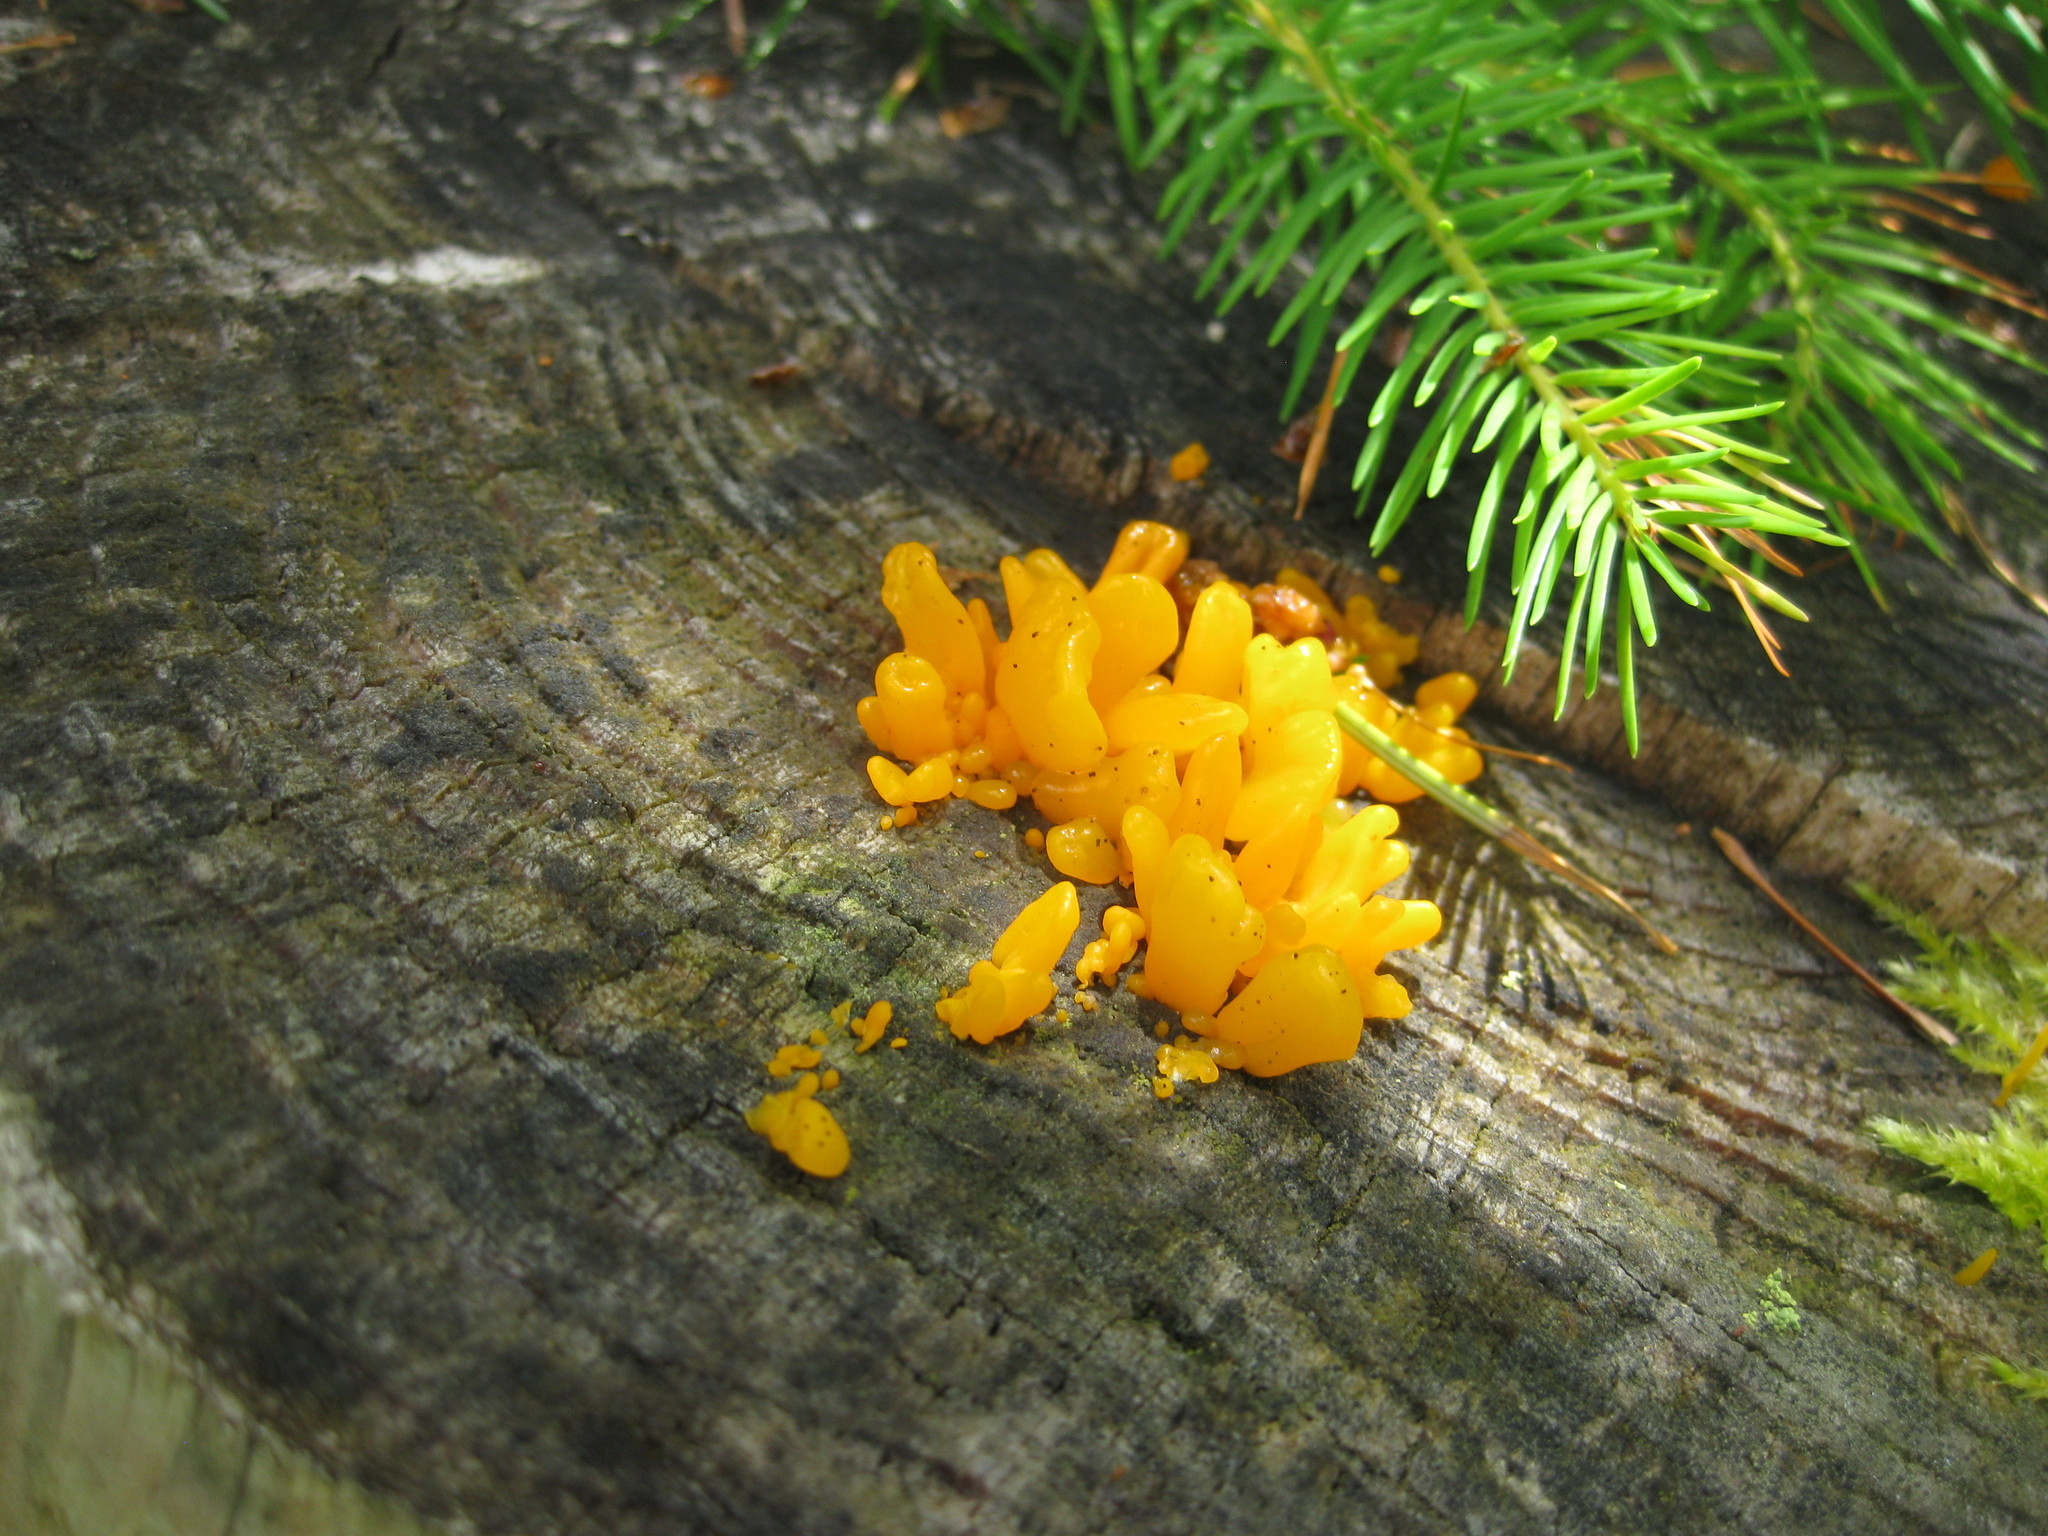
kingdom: Fungi
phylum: Basidiomycota
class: Dacrymycetes
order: Dacrymycetales
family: Dacrymycetaceae
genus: Dacrymyces
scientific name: Dacrymyces chrysospermus
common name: Orange jelly spot
